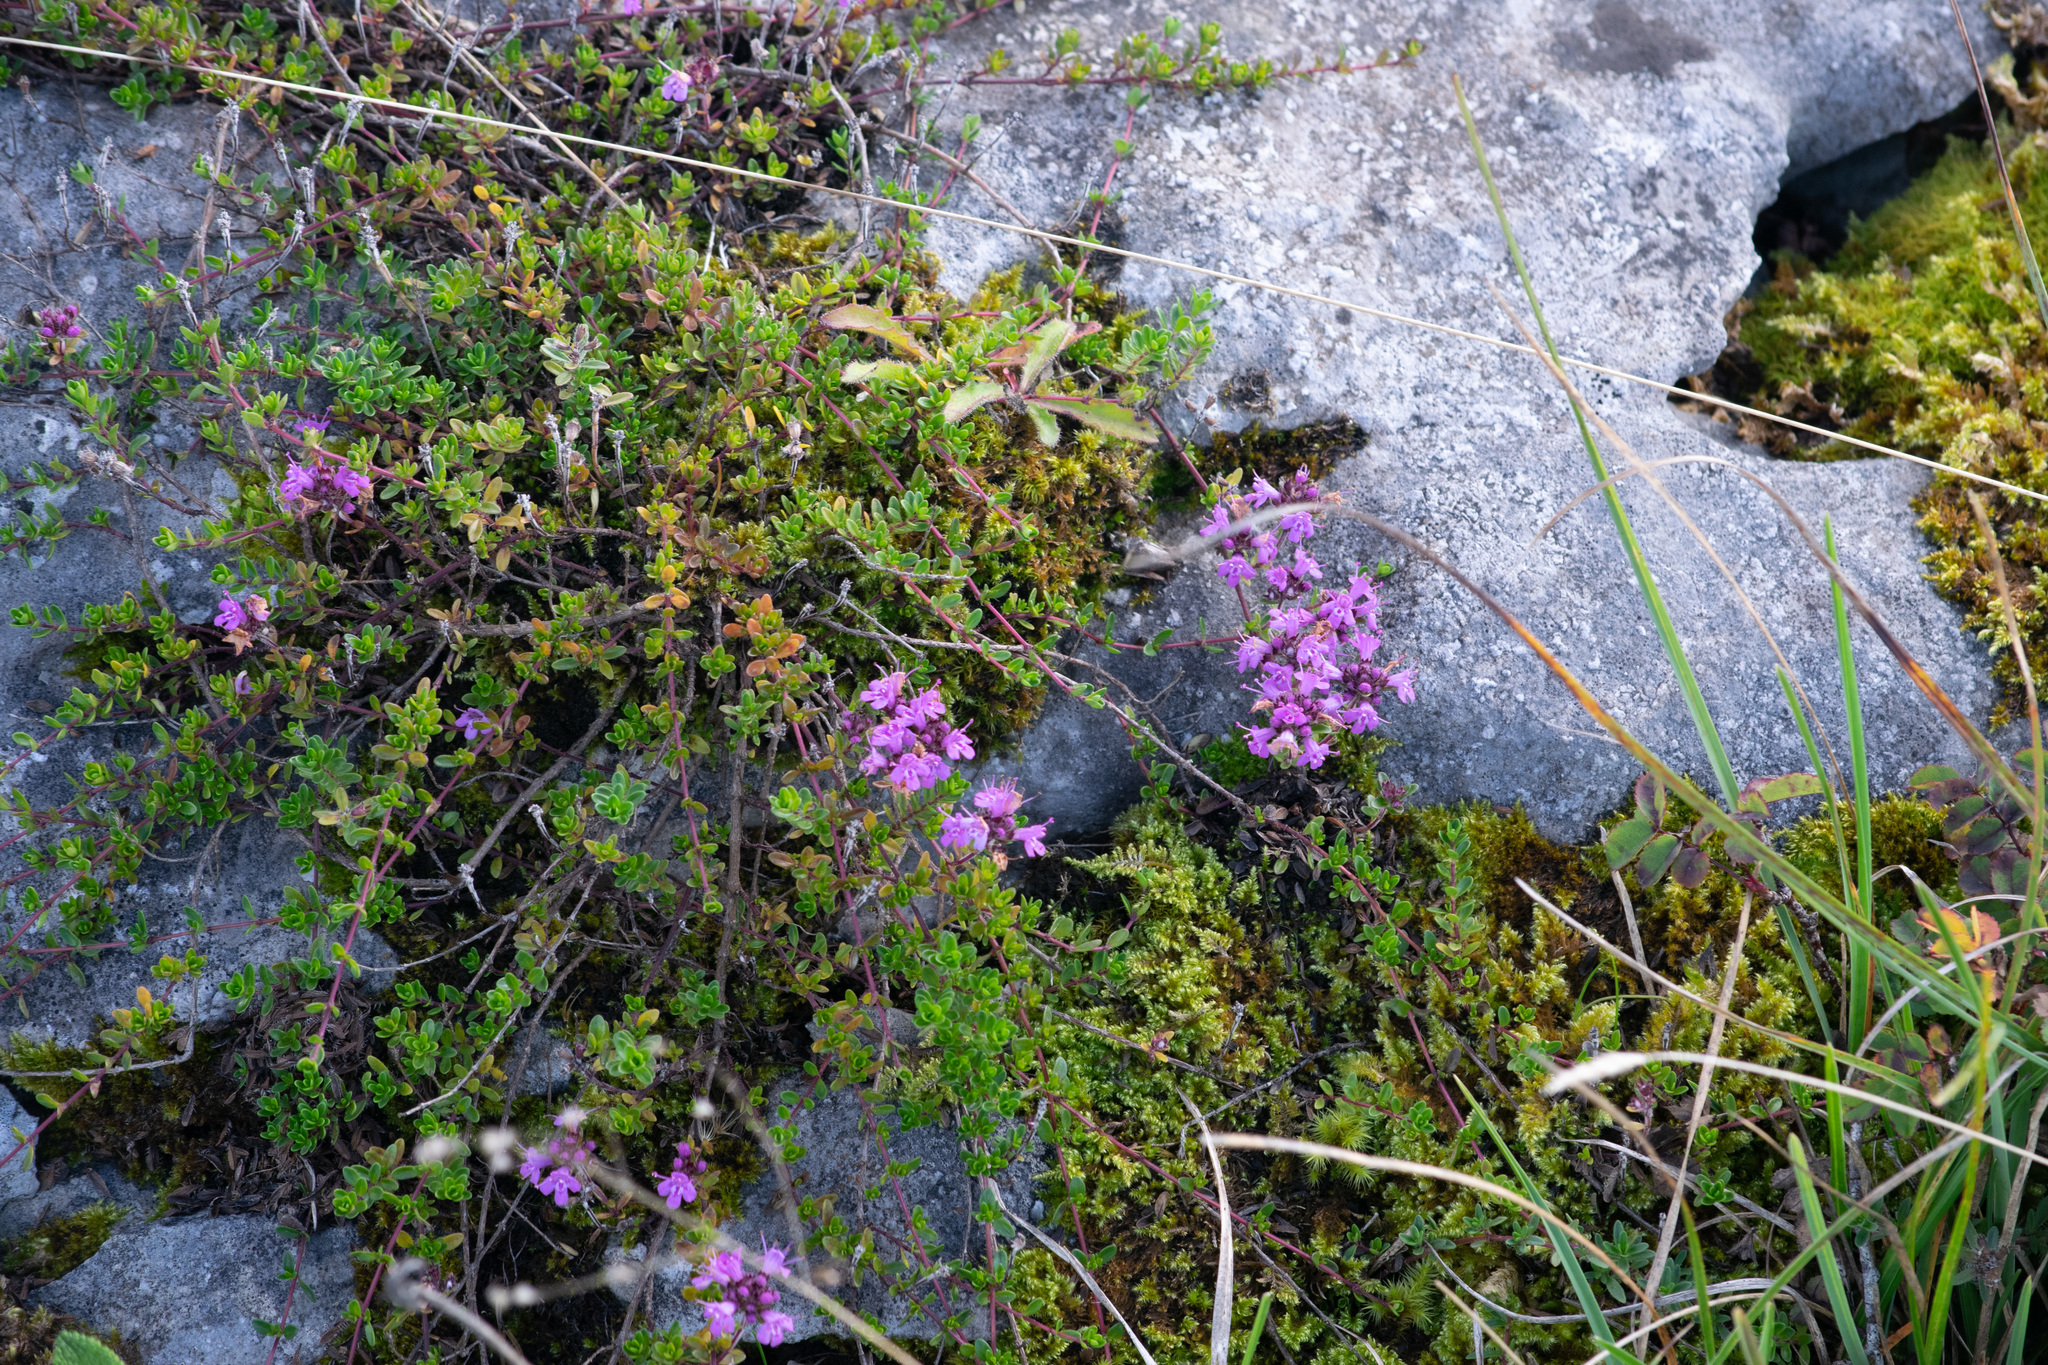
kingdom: Plantae
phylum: Tracheophyta
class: Magnoliopsida
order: Lamiales
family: Lamiaceae
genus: Thymus
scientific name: Thymus praecox
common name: Wild thyme
